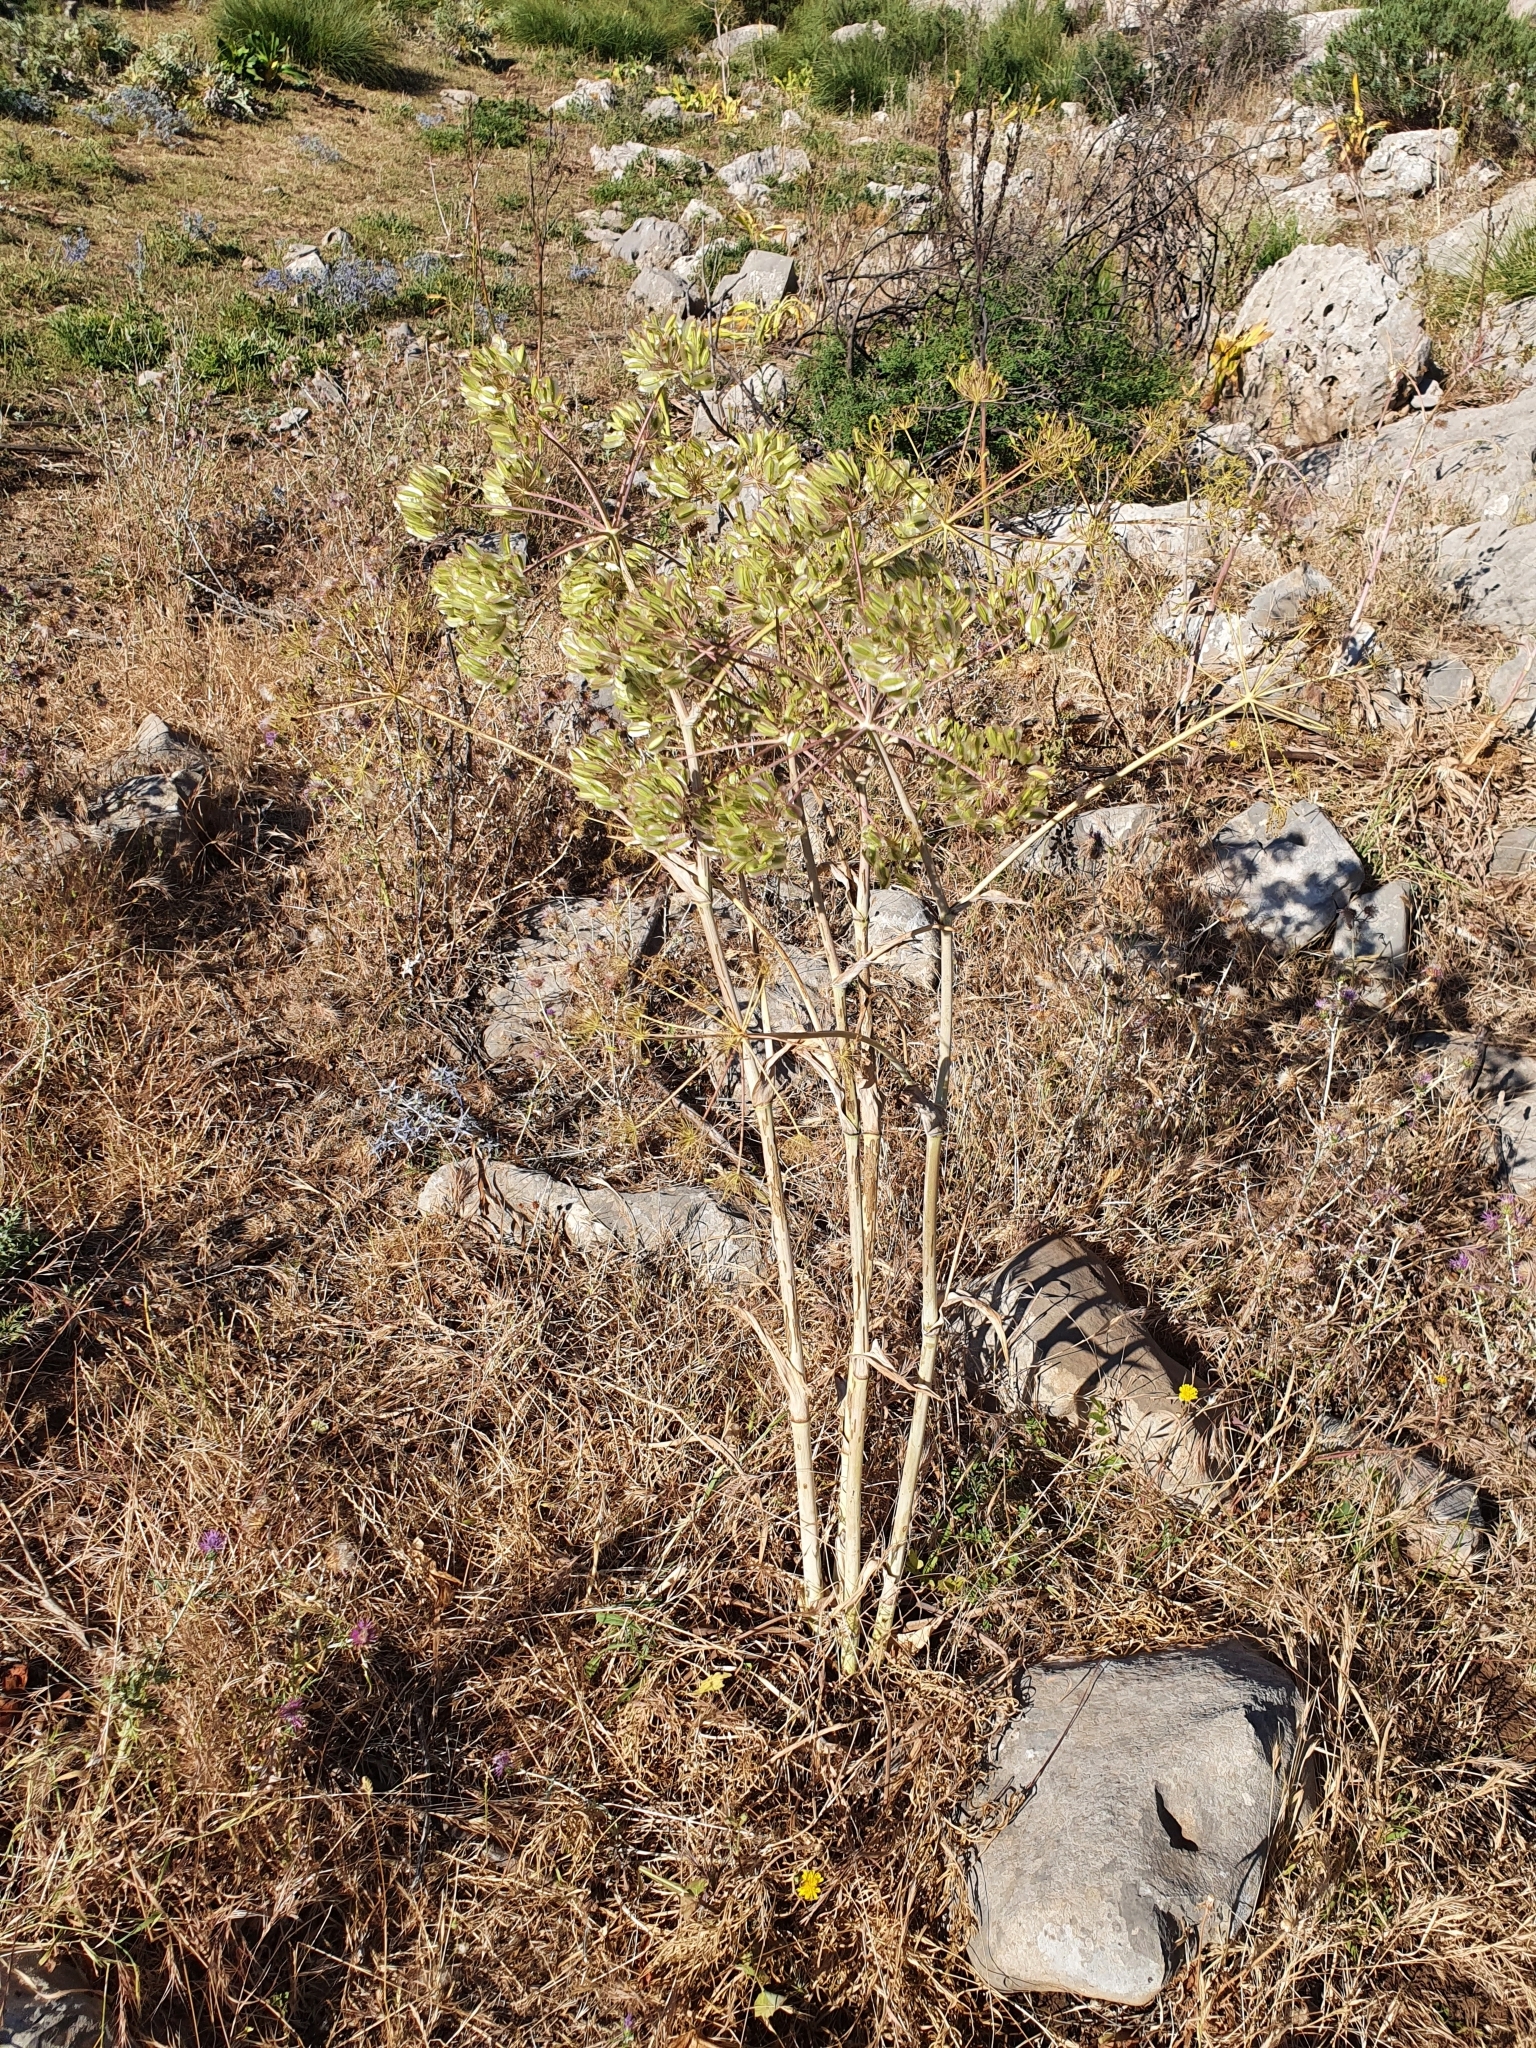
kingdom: Plantae
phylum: Tracheophyta
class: Magnoliopsida
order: Apiales
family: Apiaceae
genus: Thapsia
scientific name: Thapsia garganica
